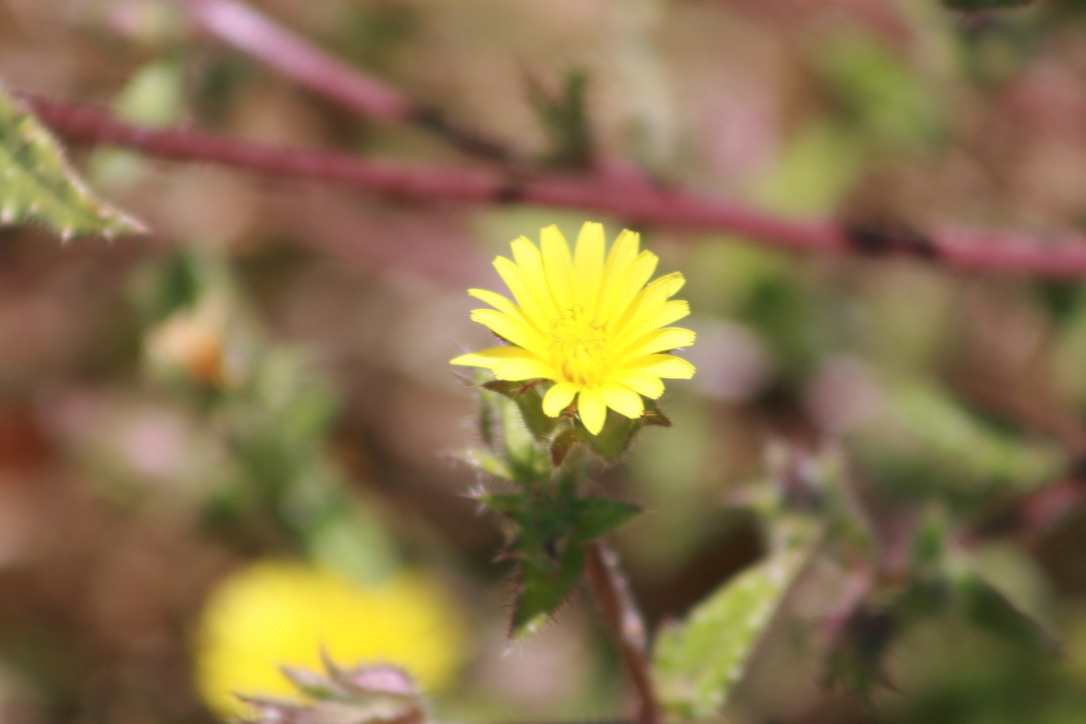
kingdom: Plantae
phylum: Tracheophyta
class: Magnoliopsida
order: Asterales
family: Asteraceae
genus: Helminthotheca
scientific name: Helminthotheca echioides
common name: Ox-tongue
